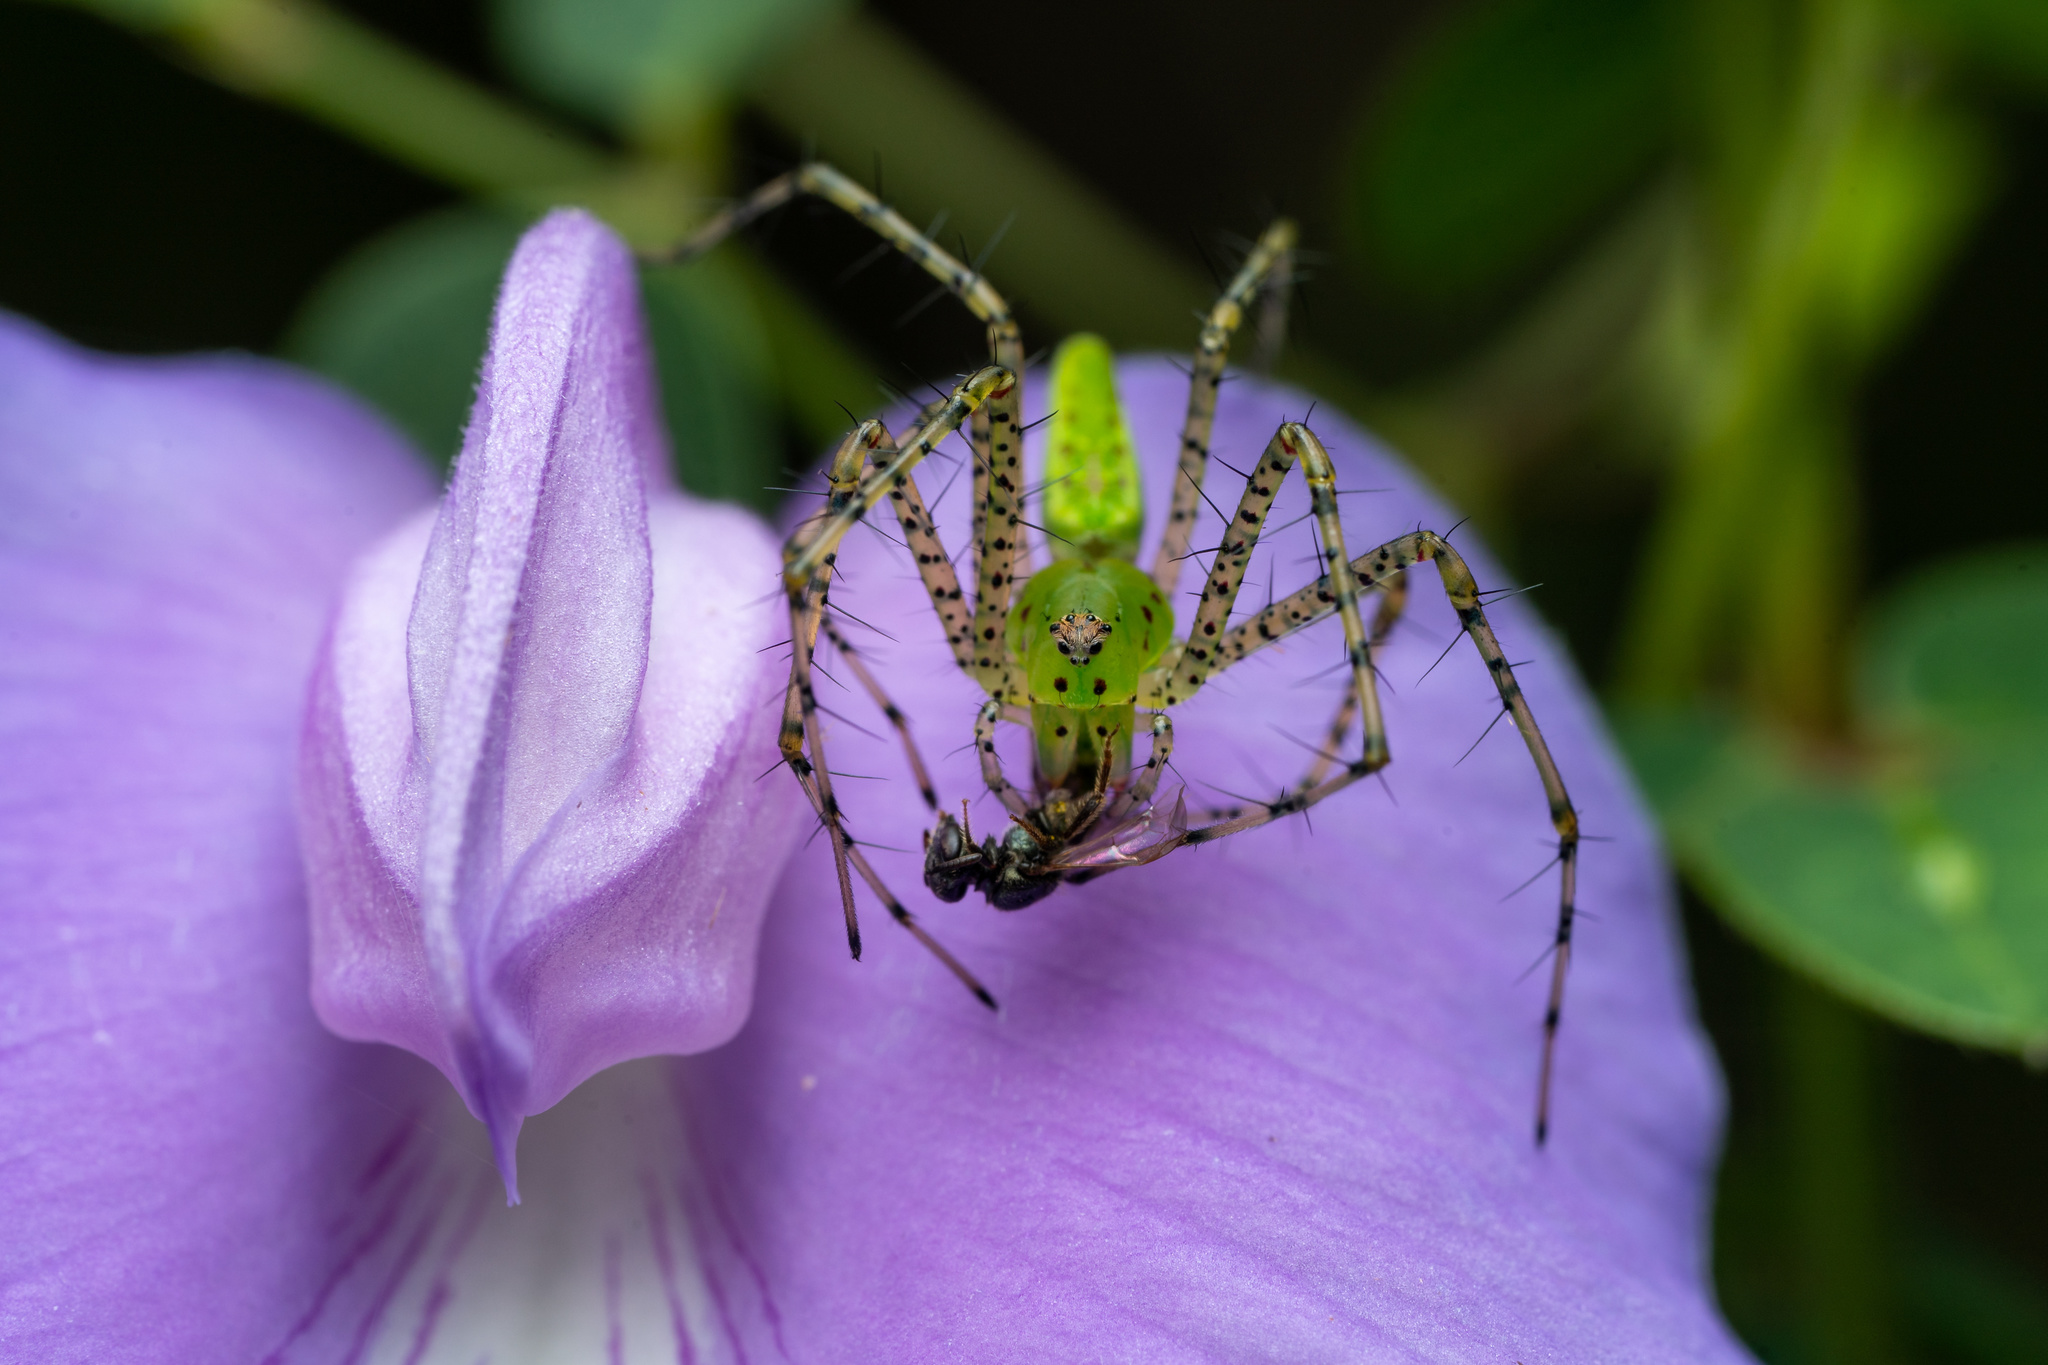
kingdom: Animalia
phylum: Arthropoda
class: Arachnida
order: Araneae
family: Oxyopidae
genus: Peucetia
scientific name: Peucetia viridans
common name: Lynx spiders
